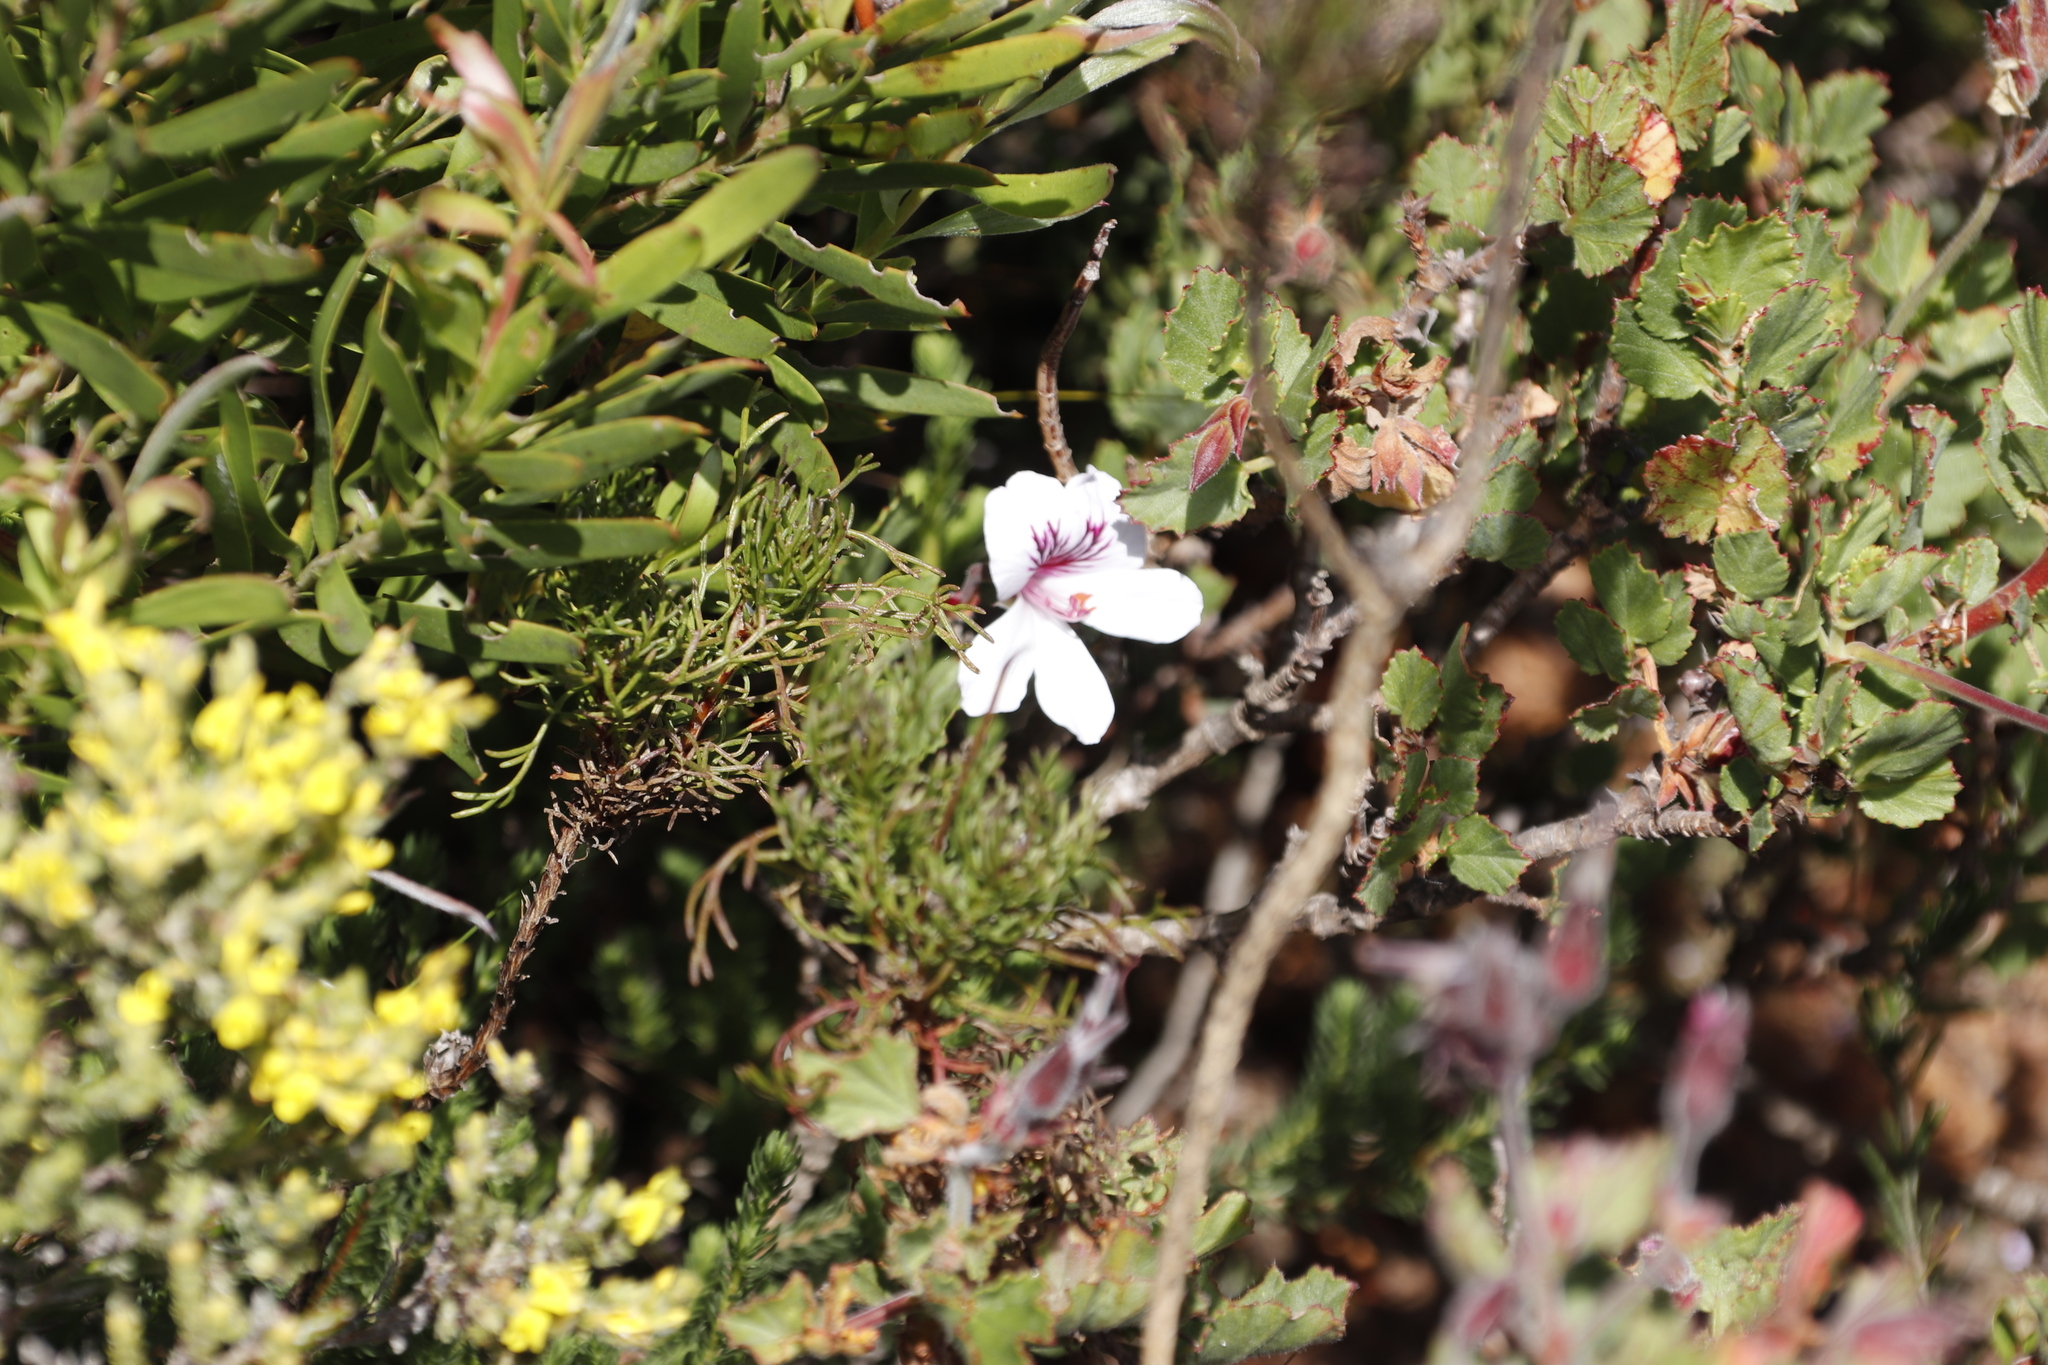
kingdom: Plantae
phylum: Tracheophyta
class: Magnoliopsida
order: Geraniales
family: Geraniaceae
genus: Pelargonium
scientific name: Pelargonium betulinum
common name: Birch-leaf pelargonium
